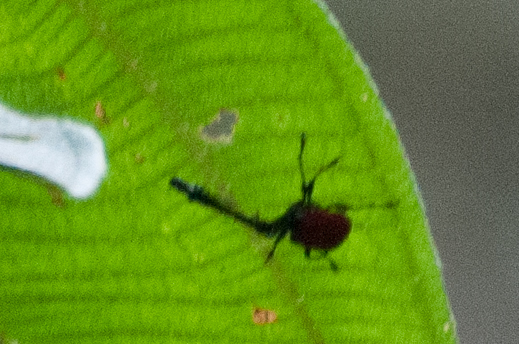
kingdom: Animalia
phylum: Arthropoda
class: Insecta
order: Coleoptera
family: Attelabidae
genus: Trachelophorus
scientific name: Trachelophorus giraffa
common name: Giraffe weevil
